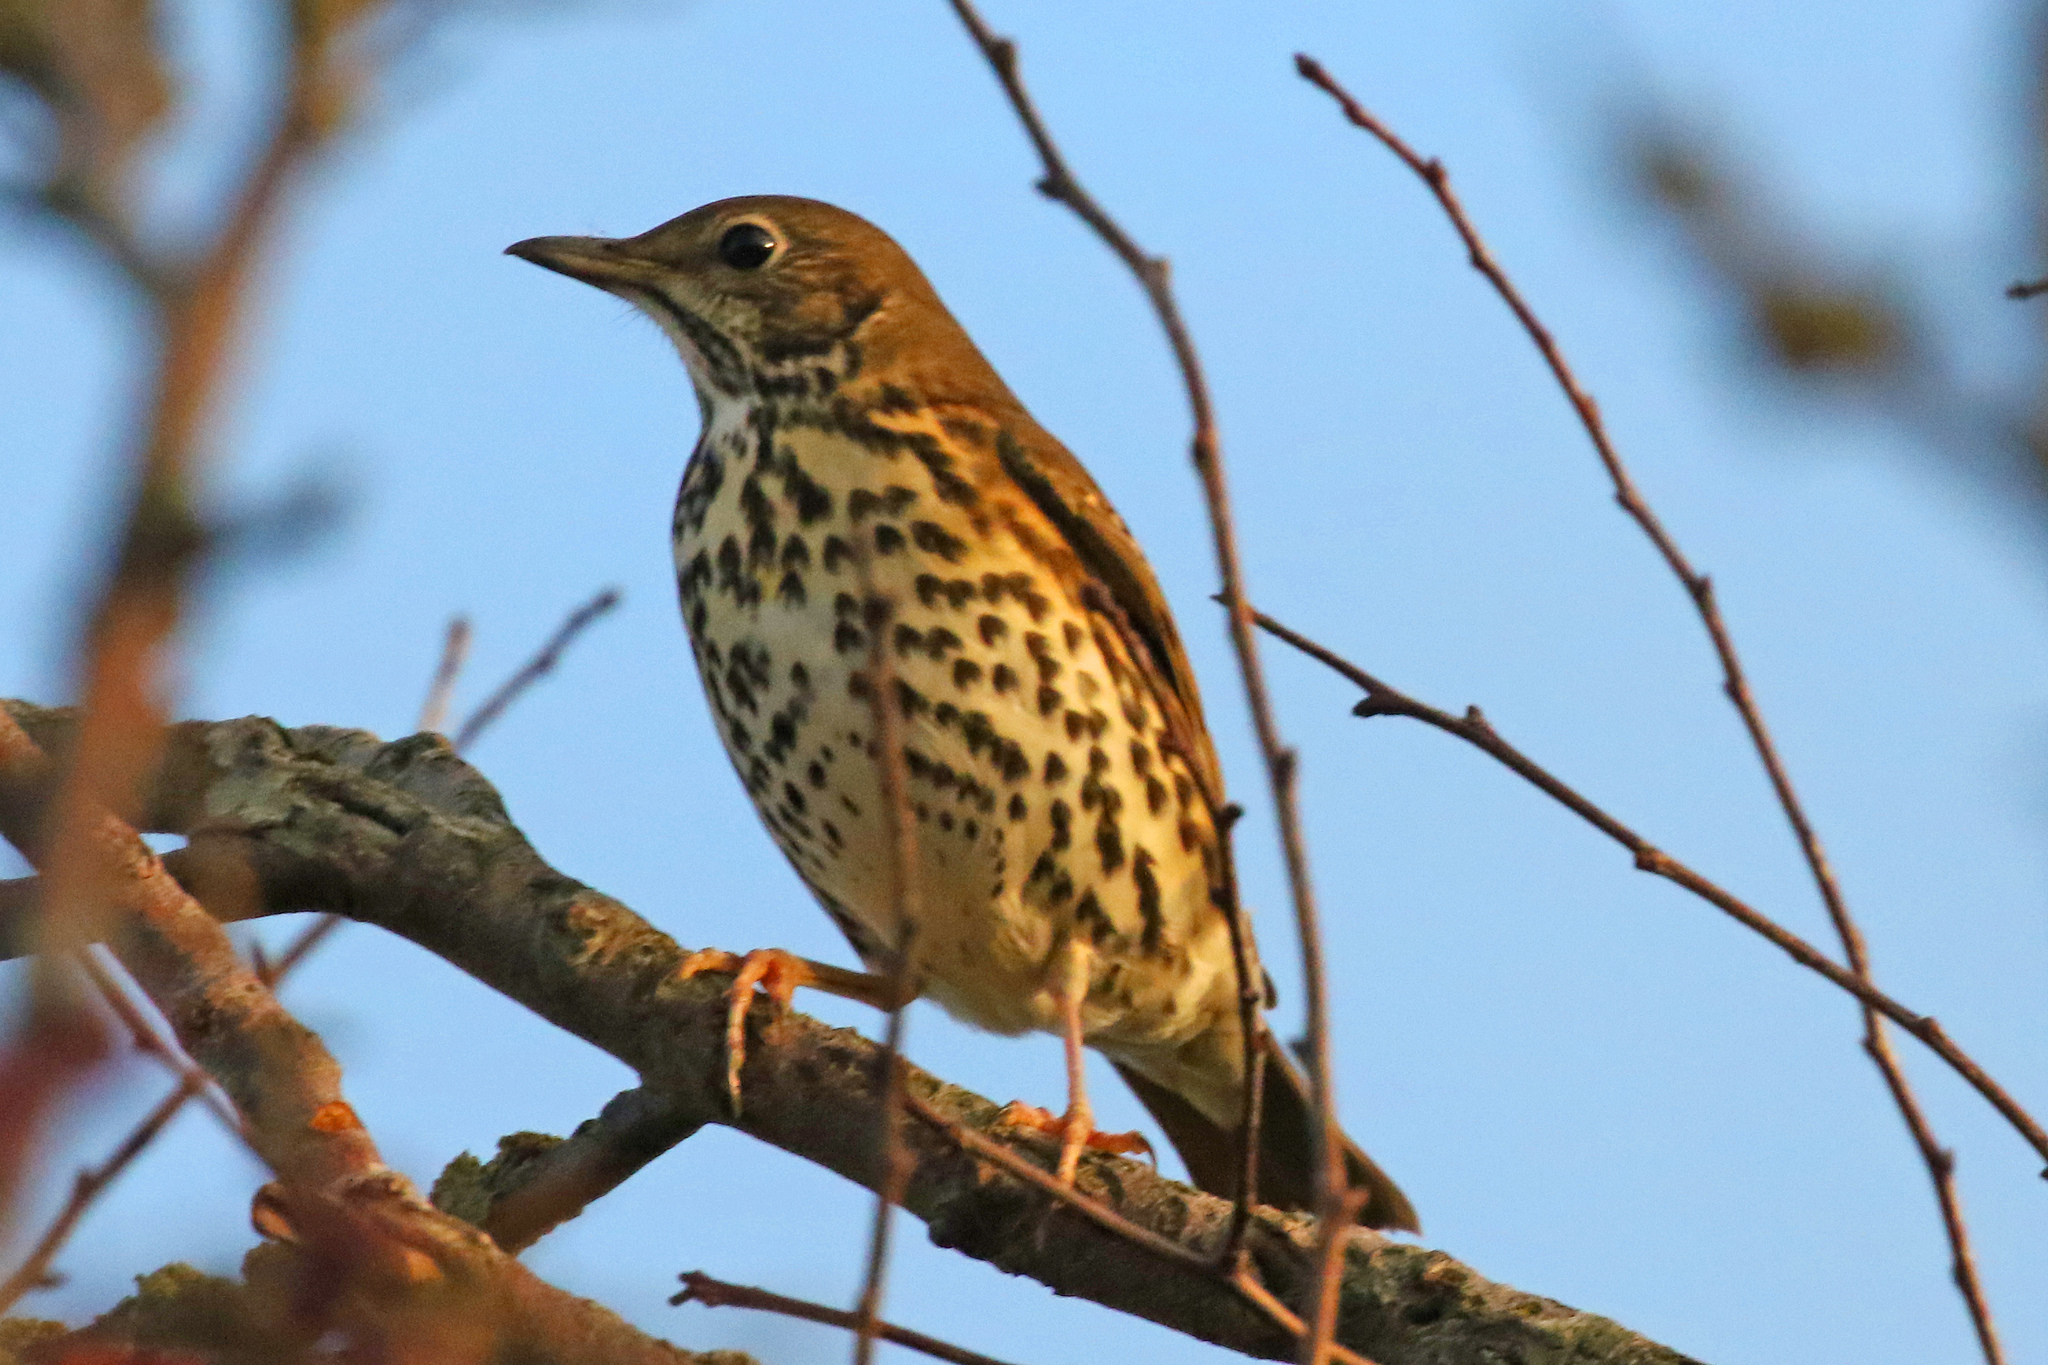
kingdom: Animalia
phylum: Chordata
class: Aves
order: Passeriformes
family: Turdidae
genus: Turdus
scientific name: Turdus philomelos
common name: Song thrush
